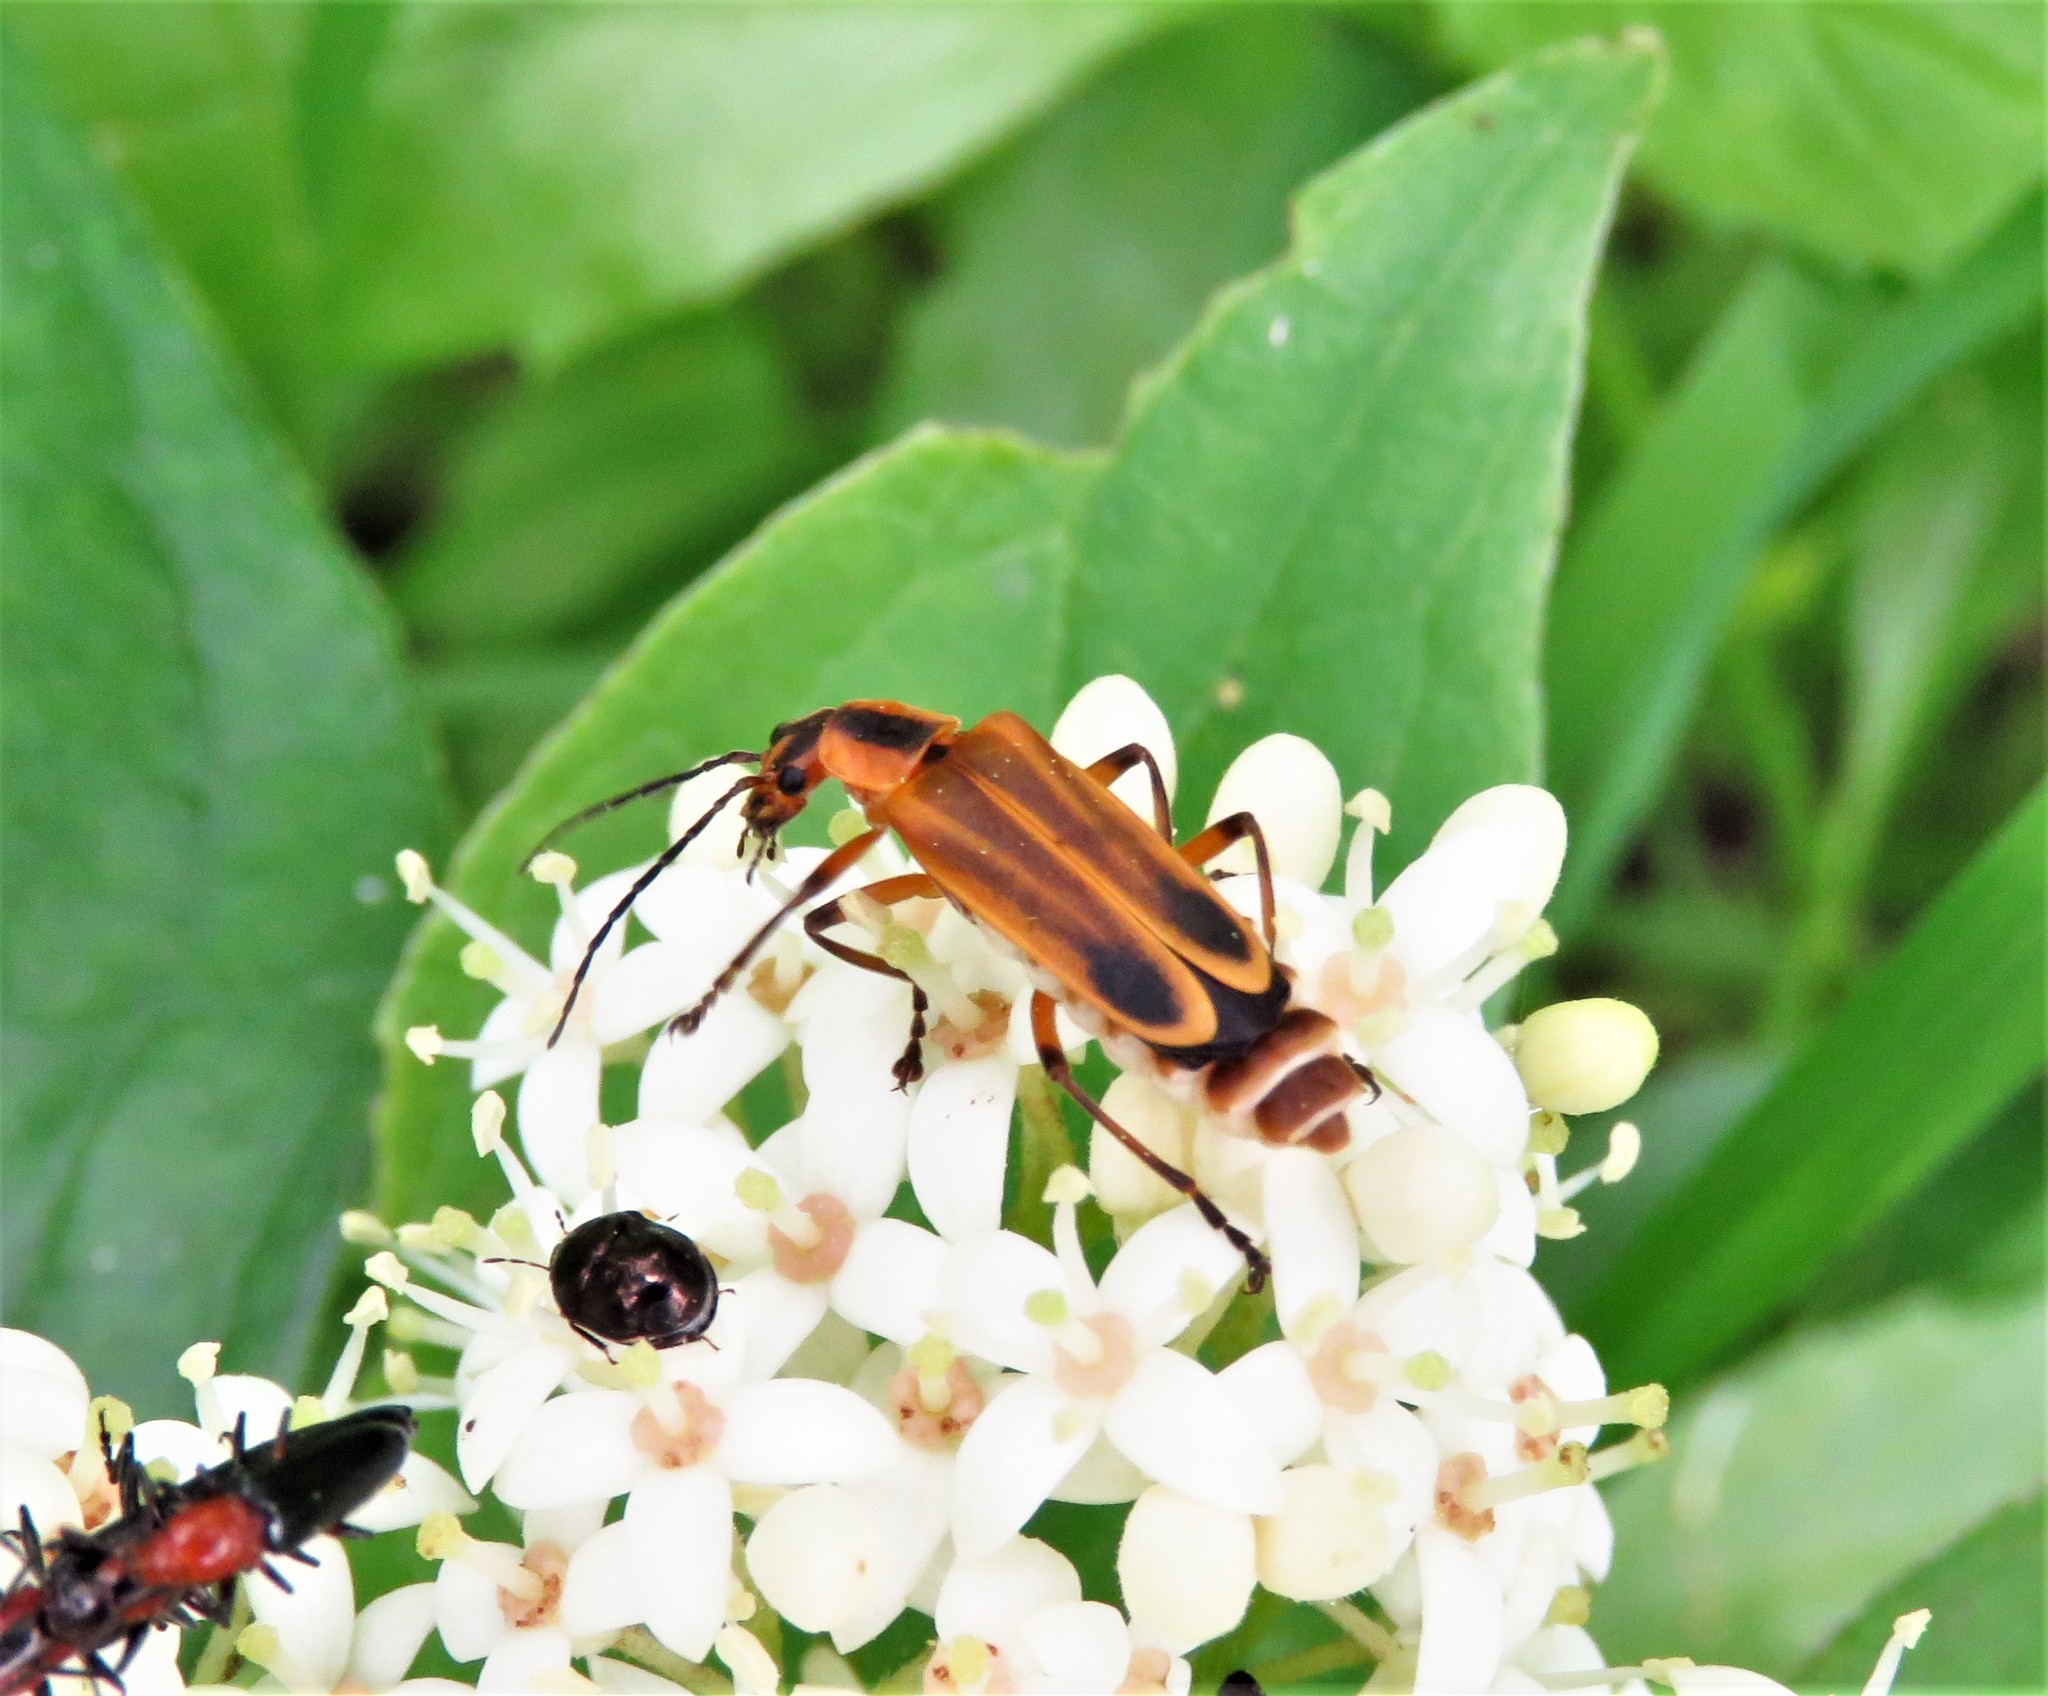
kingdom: Animalia
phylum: Arthropoda
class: Insecta
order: Coleoptera
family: Cantharidae
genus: Chauliognathus
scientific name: Chauliognathus marginatus
